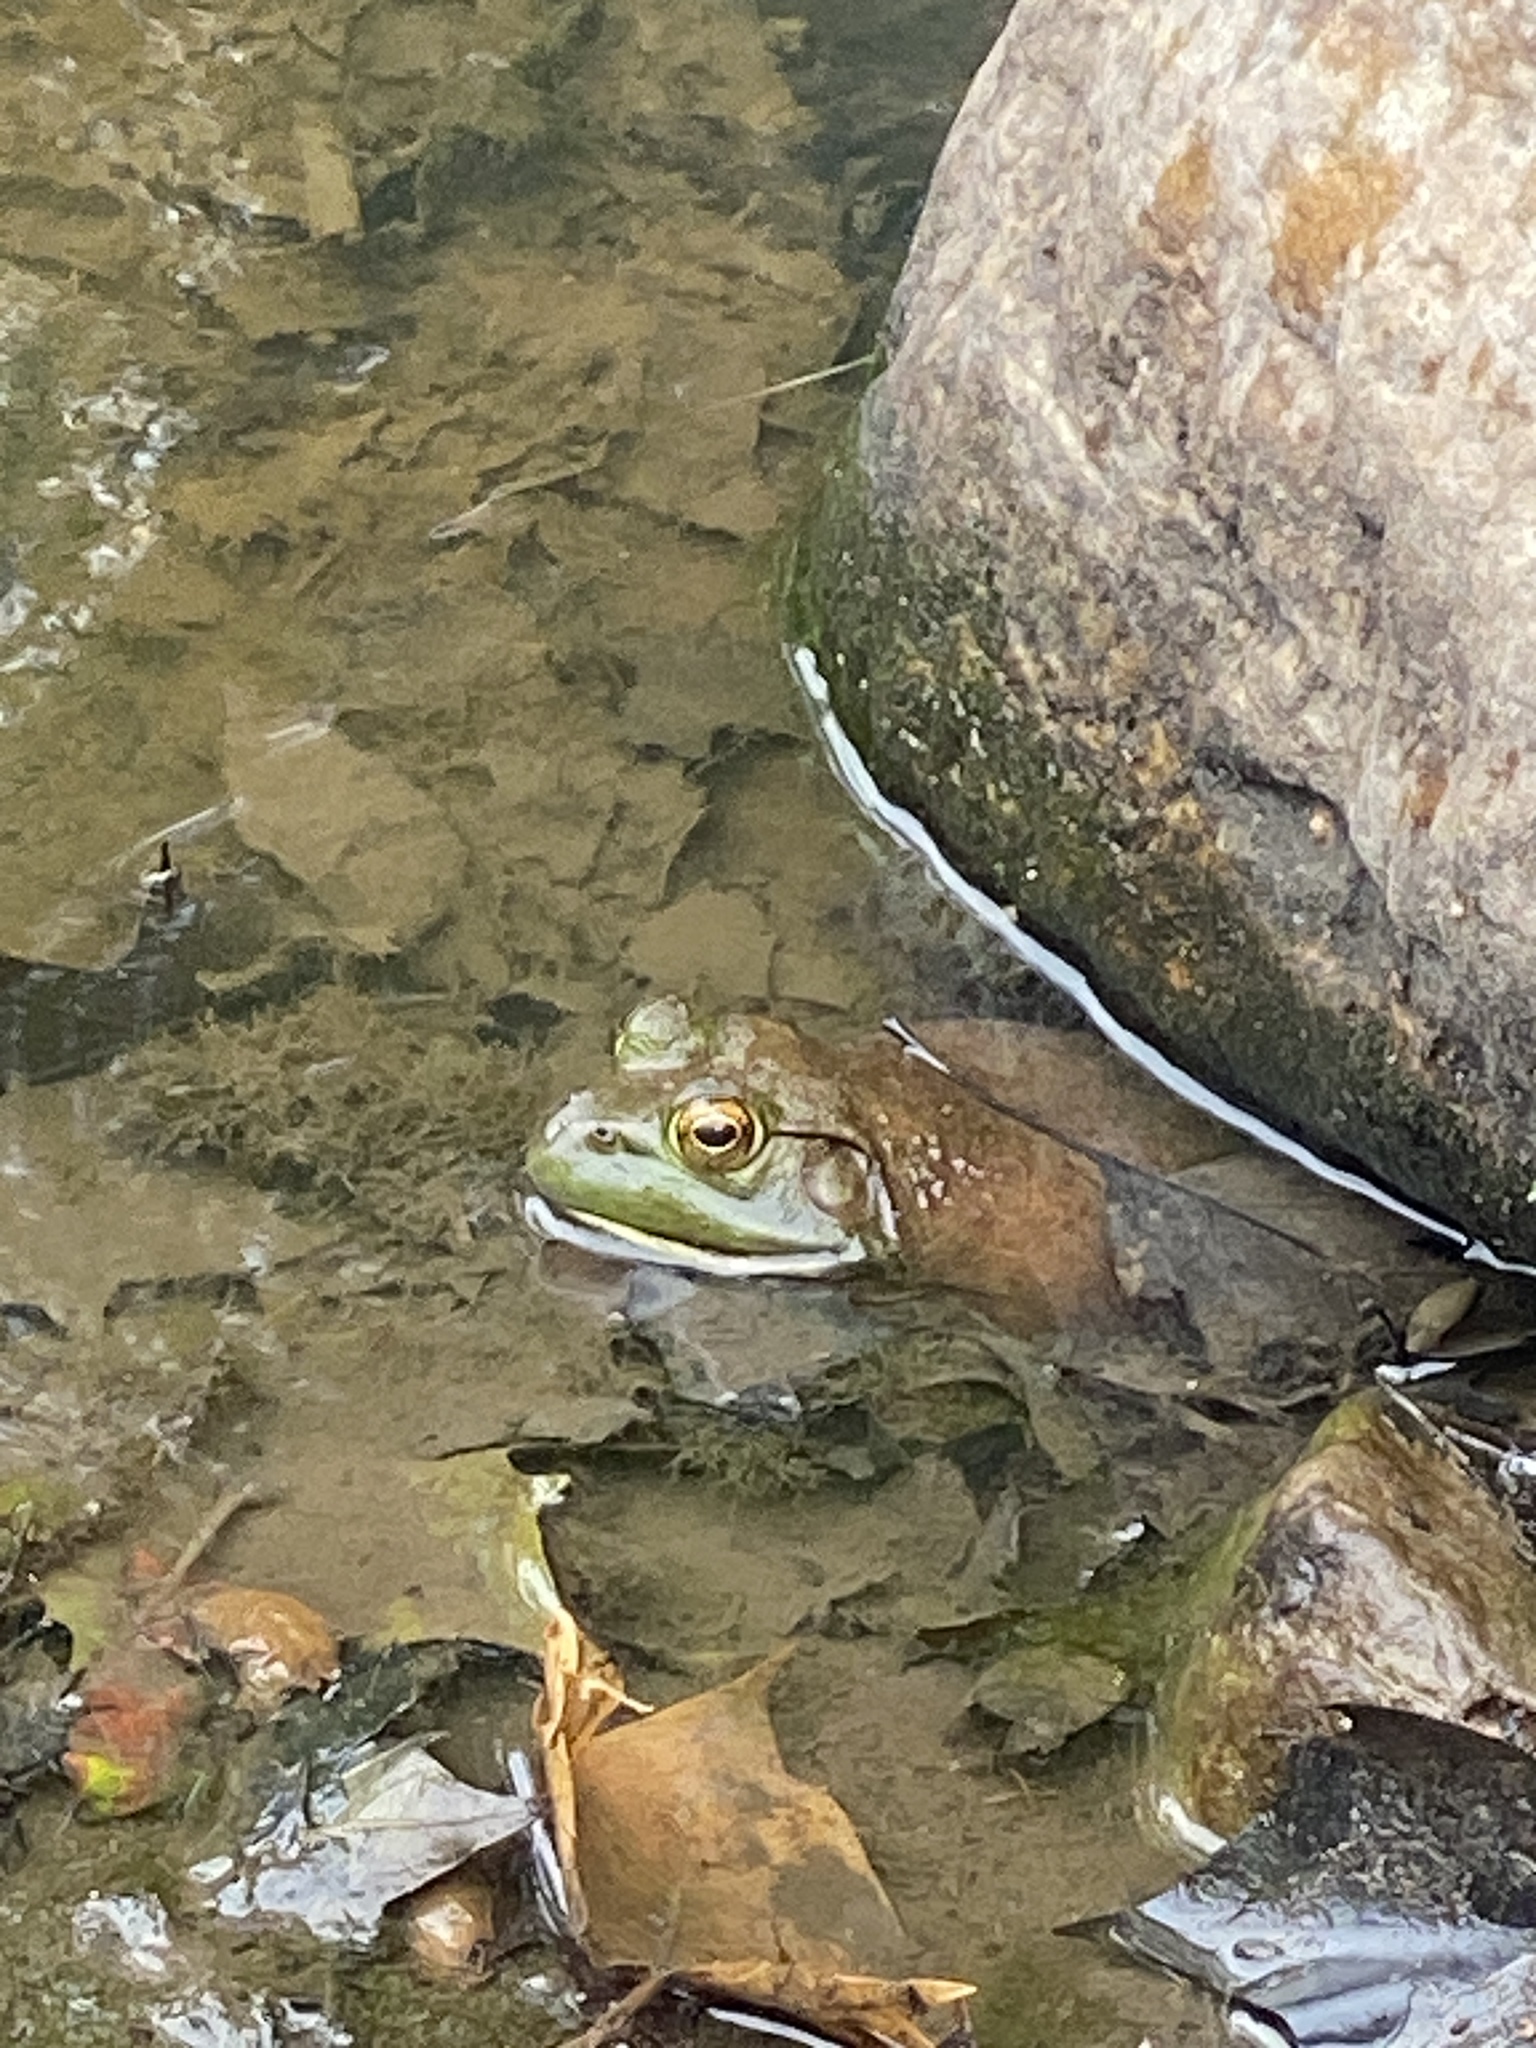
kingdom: Animalia
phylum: Chordata
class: Amphibia
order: Anura
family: Ranidae
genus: Lithobates
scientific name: Lithobates catesbeianus
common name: American bullfrog
